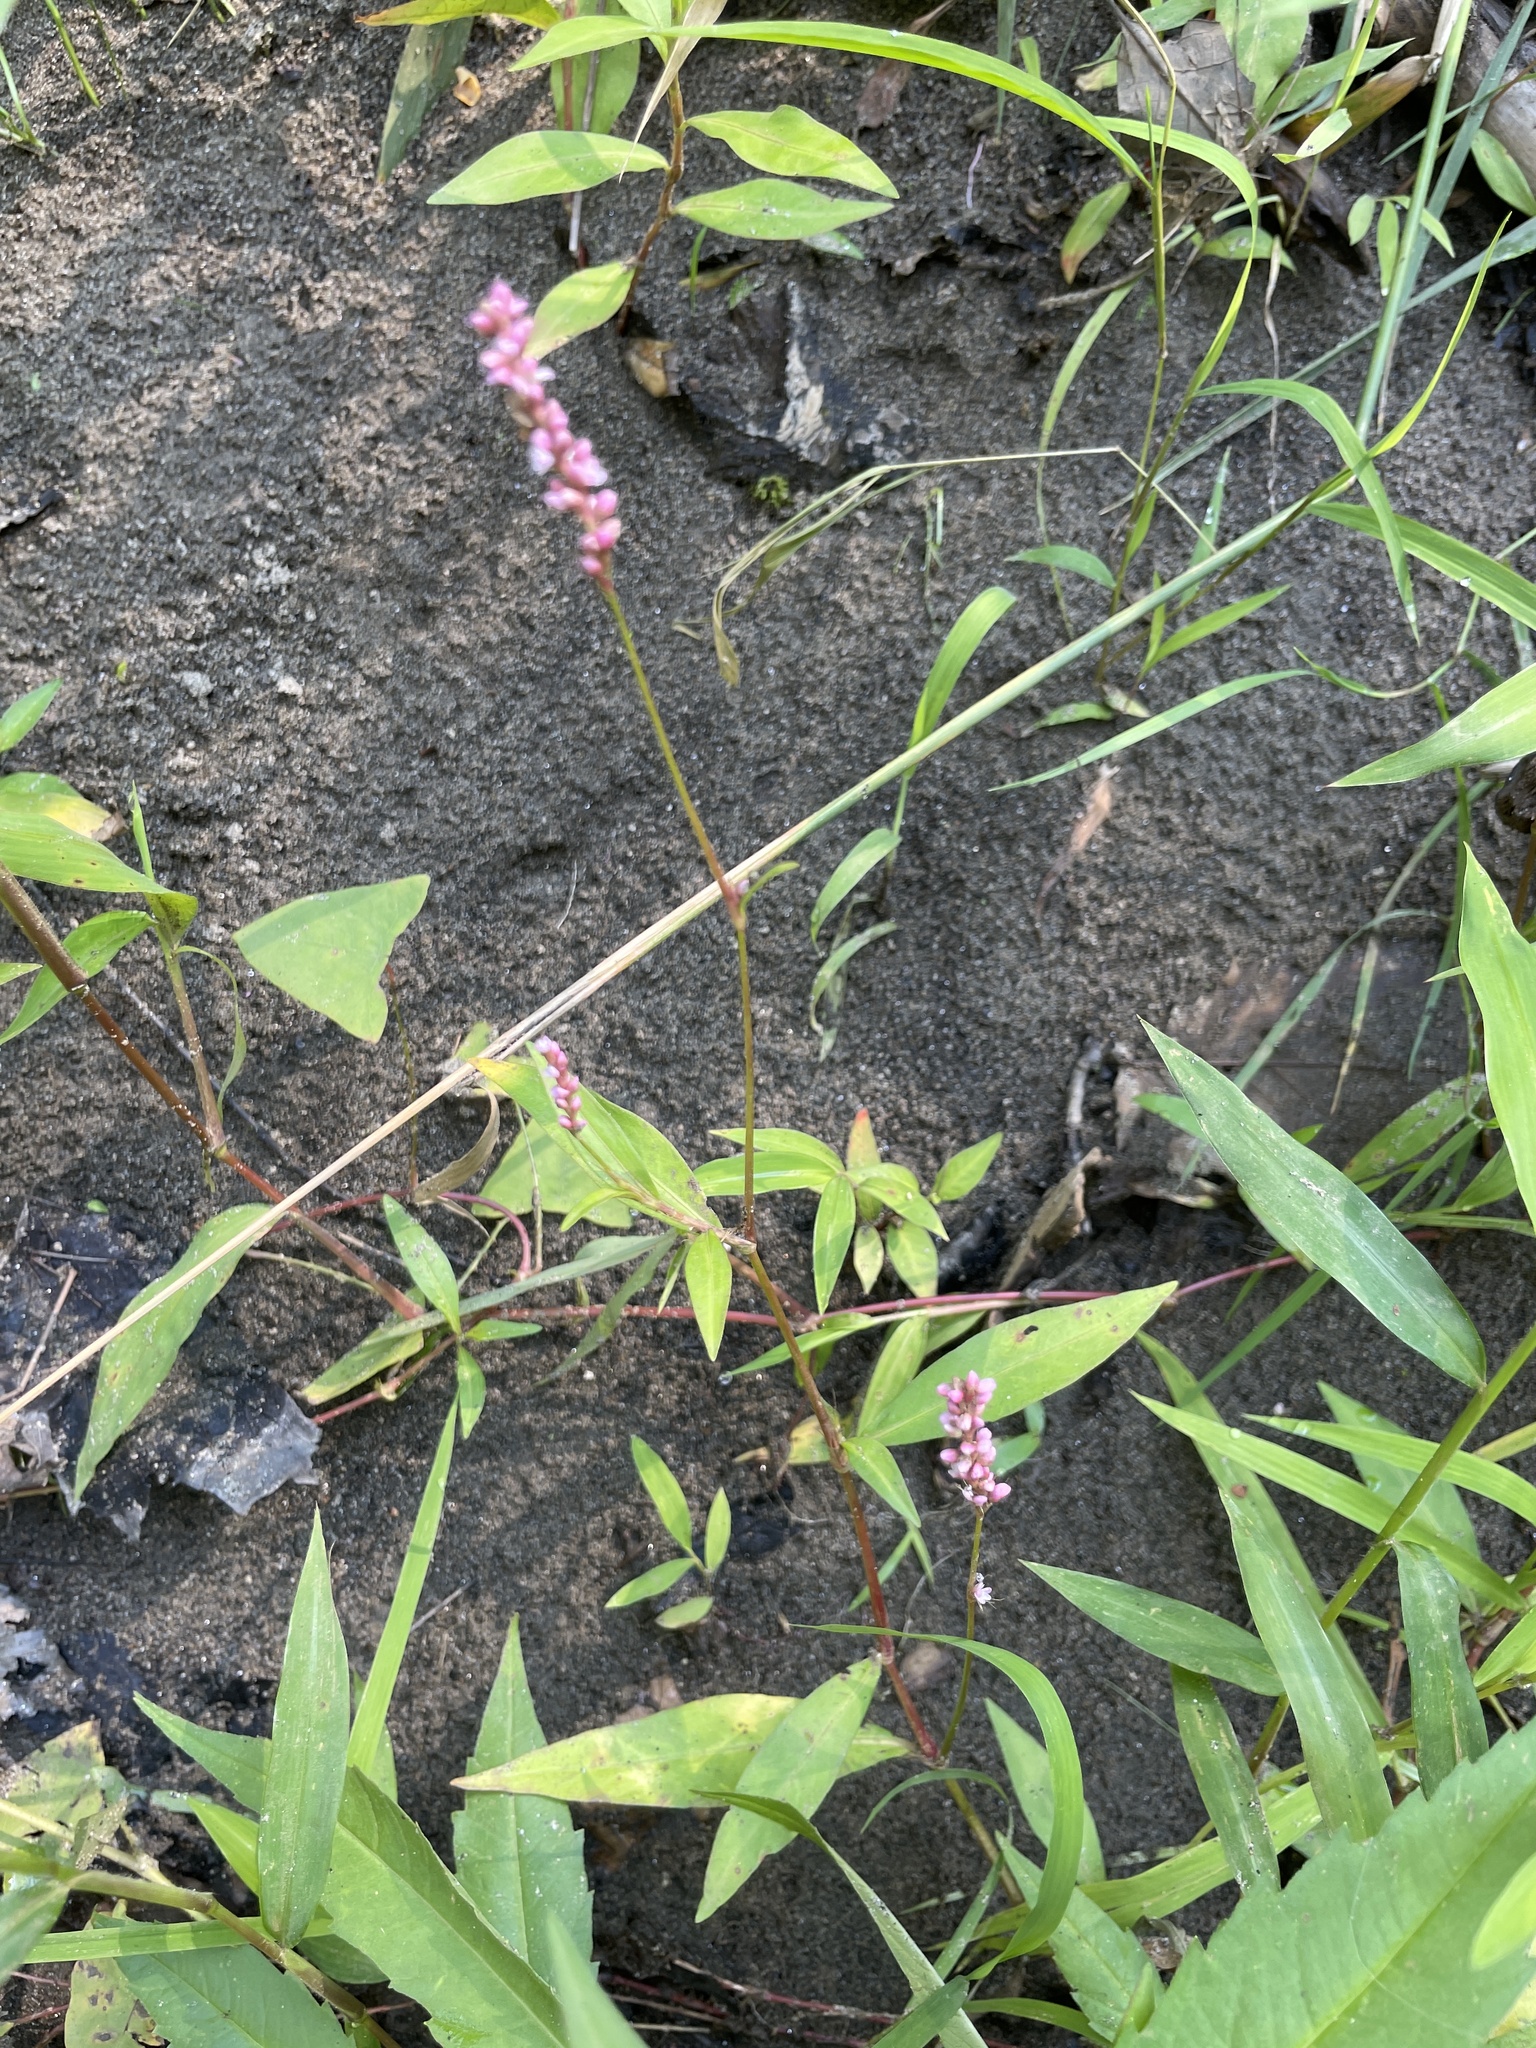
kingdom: Plantae
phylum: Tracheophyta
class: Magnoliopsida
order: Caryophyllales
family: Polygonaceae
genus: Persicaria
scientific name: Persicaria longiseta
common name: Bristly lady's-thumb
